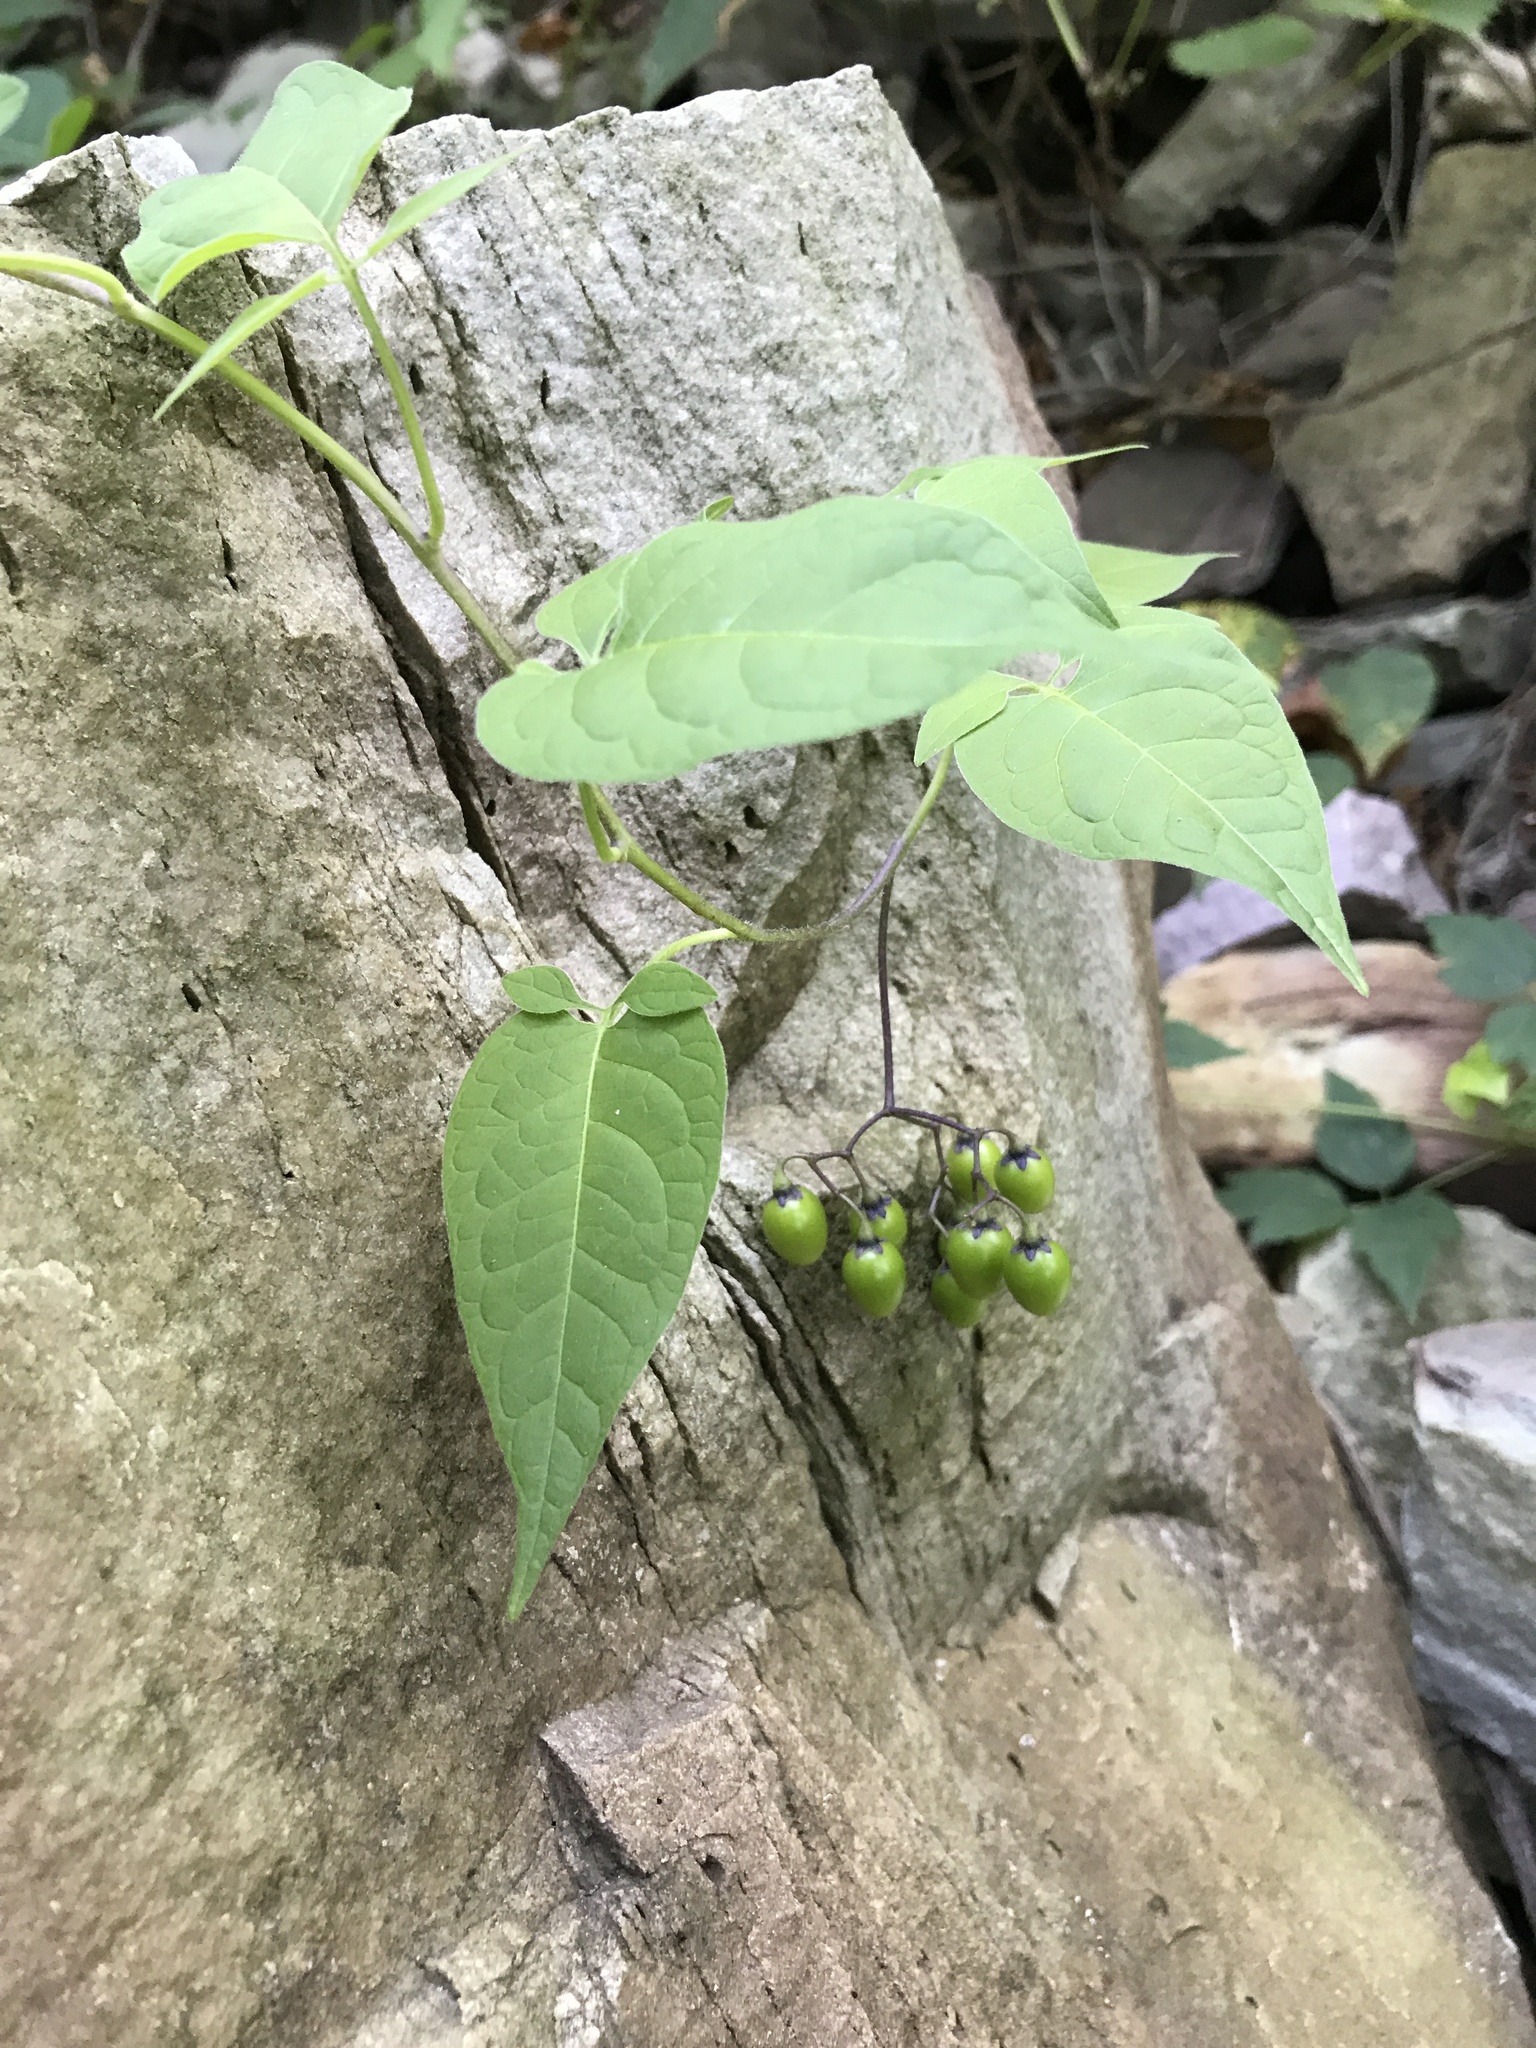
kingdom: Plantae
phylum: Tracheophyta
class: Magnoliopsida
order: Solanales
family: Solanaceae
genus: Solanum
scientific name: Solanum dulcamara
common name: Climbing nightshade
